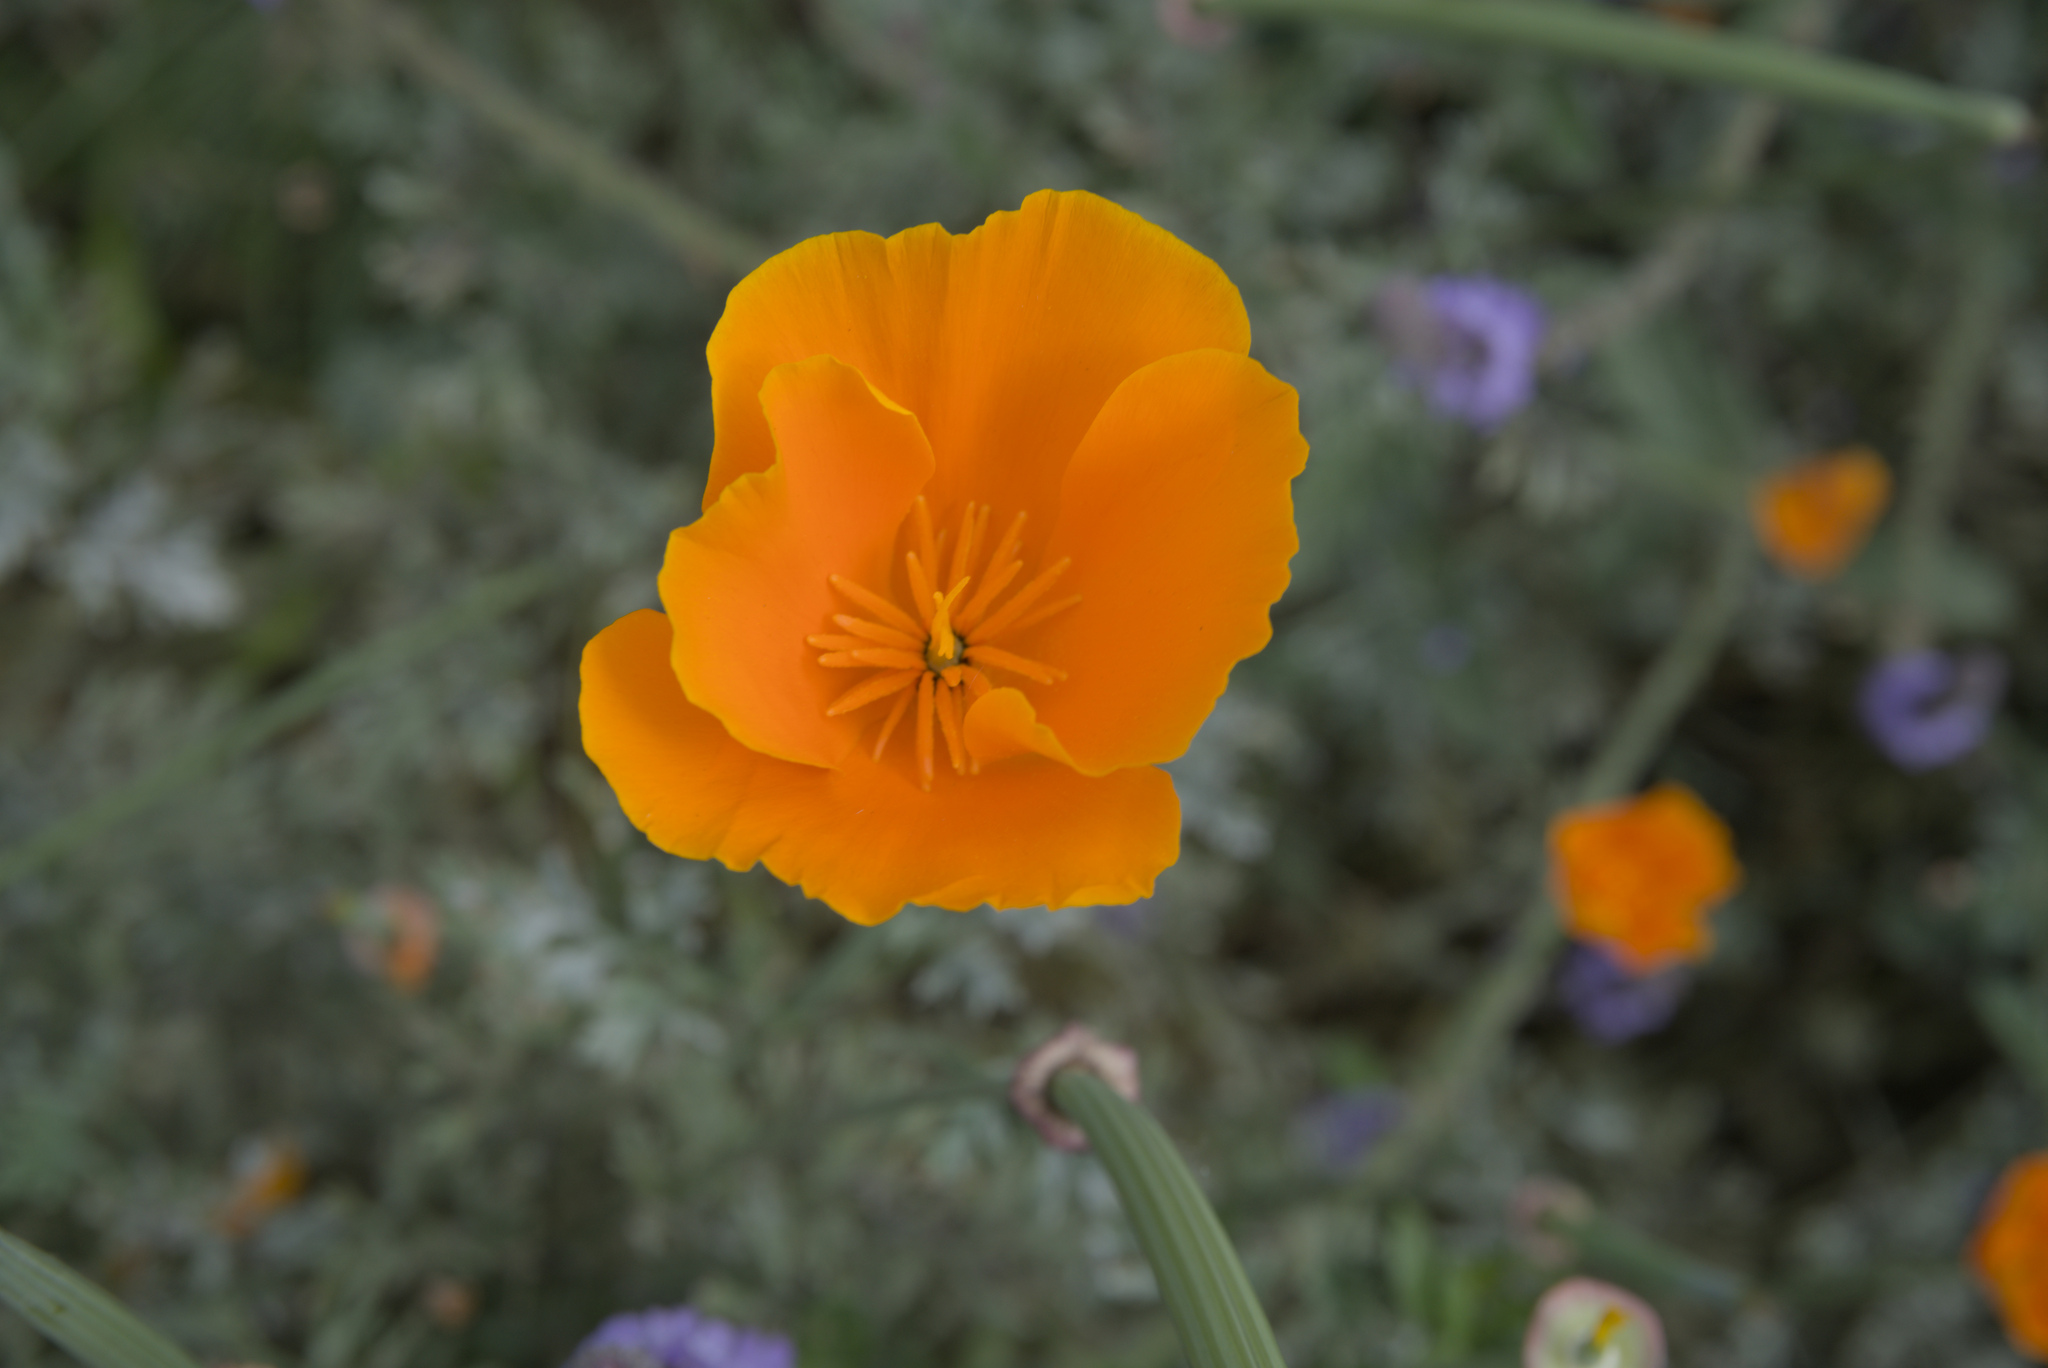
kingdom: Plantae
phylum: Tracheophyta
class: Magnoliopsida
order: Ranunculales
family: Papaveraceae
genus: Eschscholzia
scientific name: Eschscholzia californica
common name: California poppy
